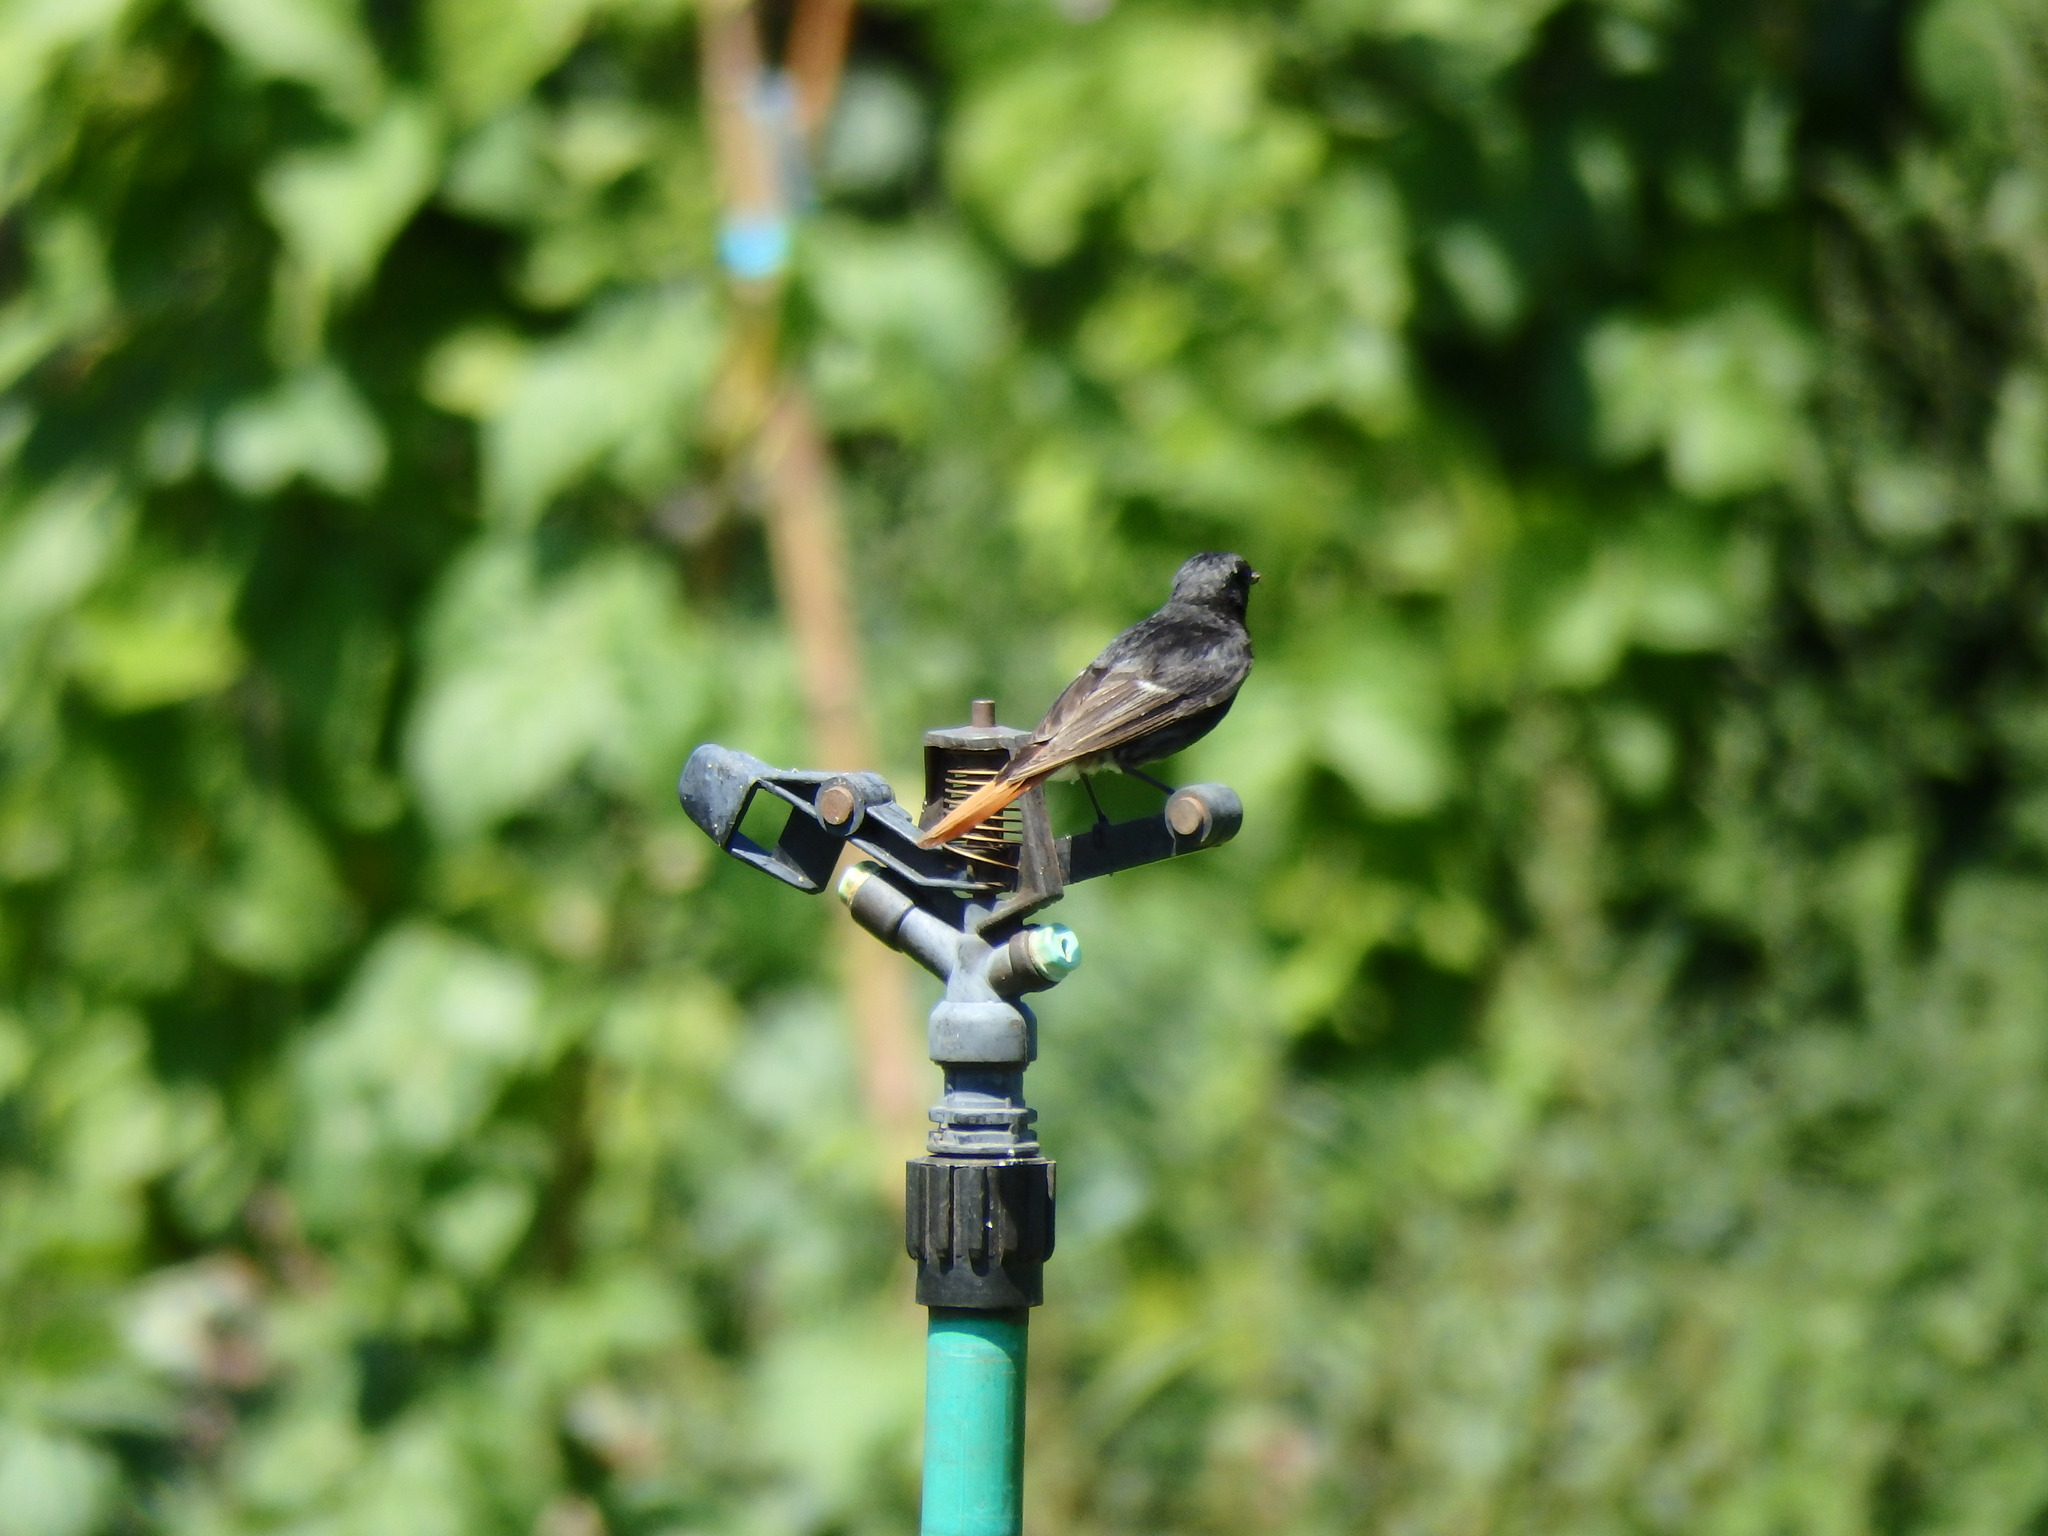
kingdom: Animalia
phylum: Chordata
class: Aves
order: Passeriformes
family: Muscicapidae
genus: Phoenicurus
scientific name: Phoenicurus ochruros
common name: Black redstart
